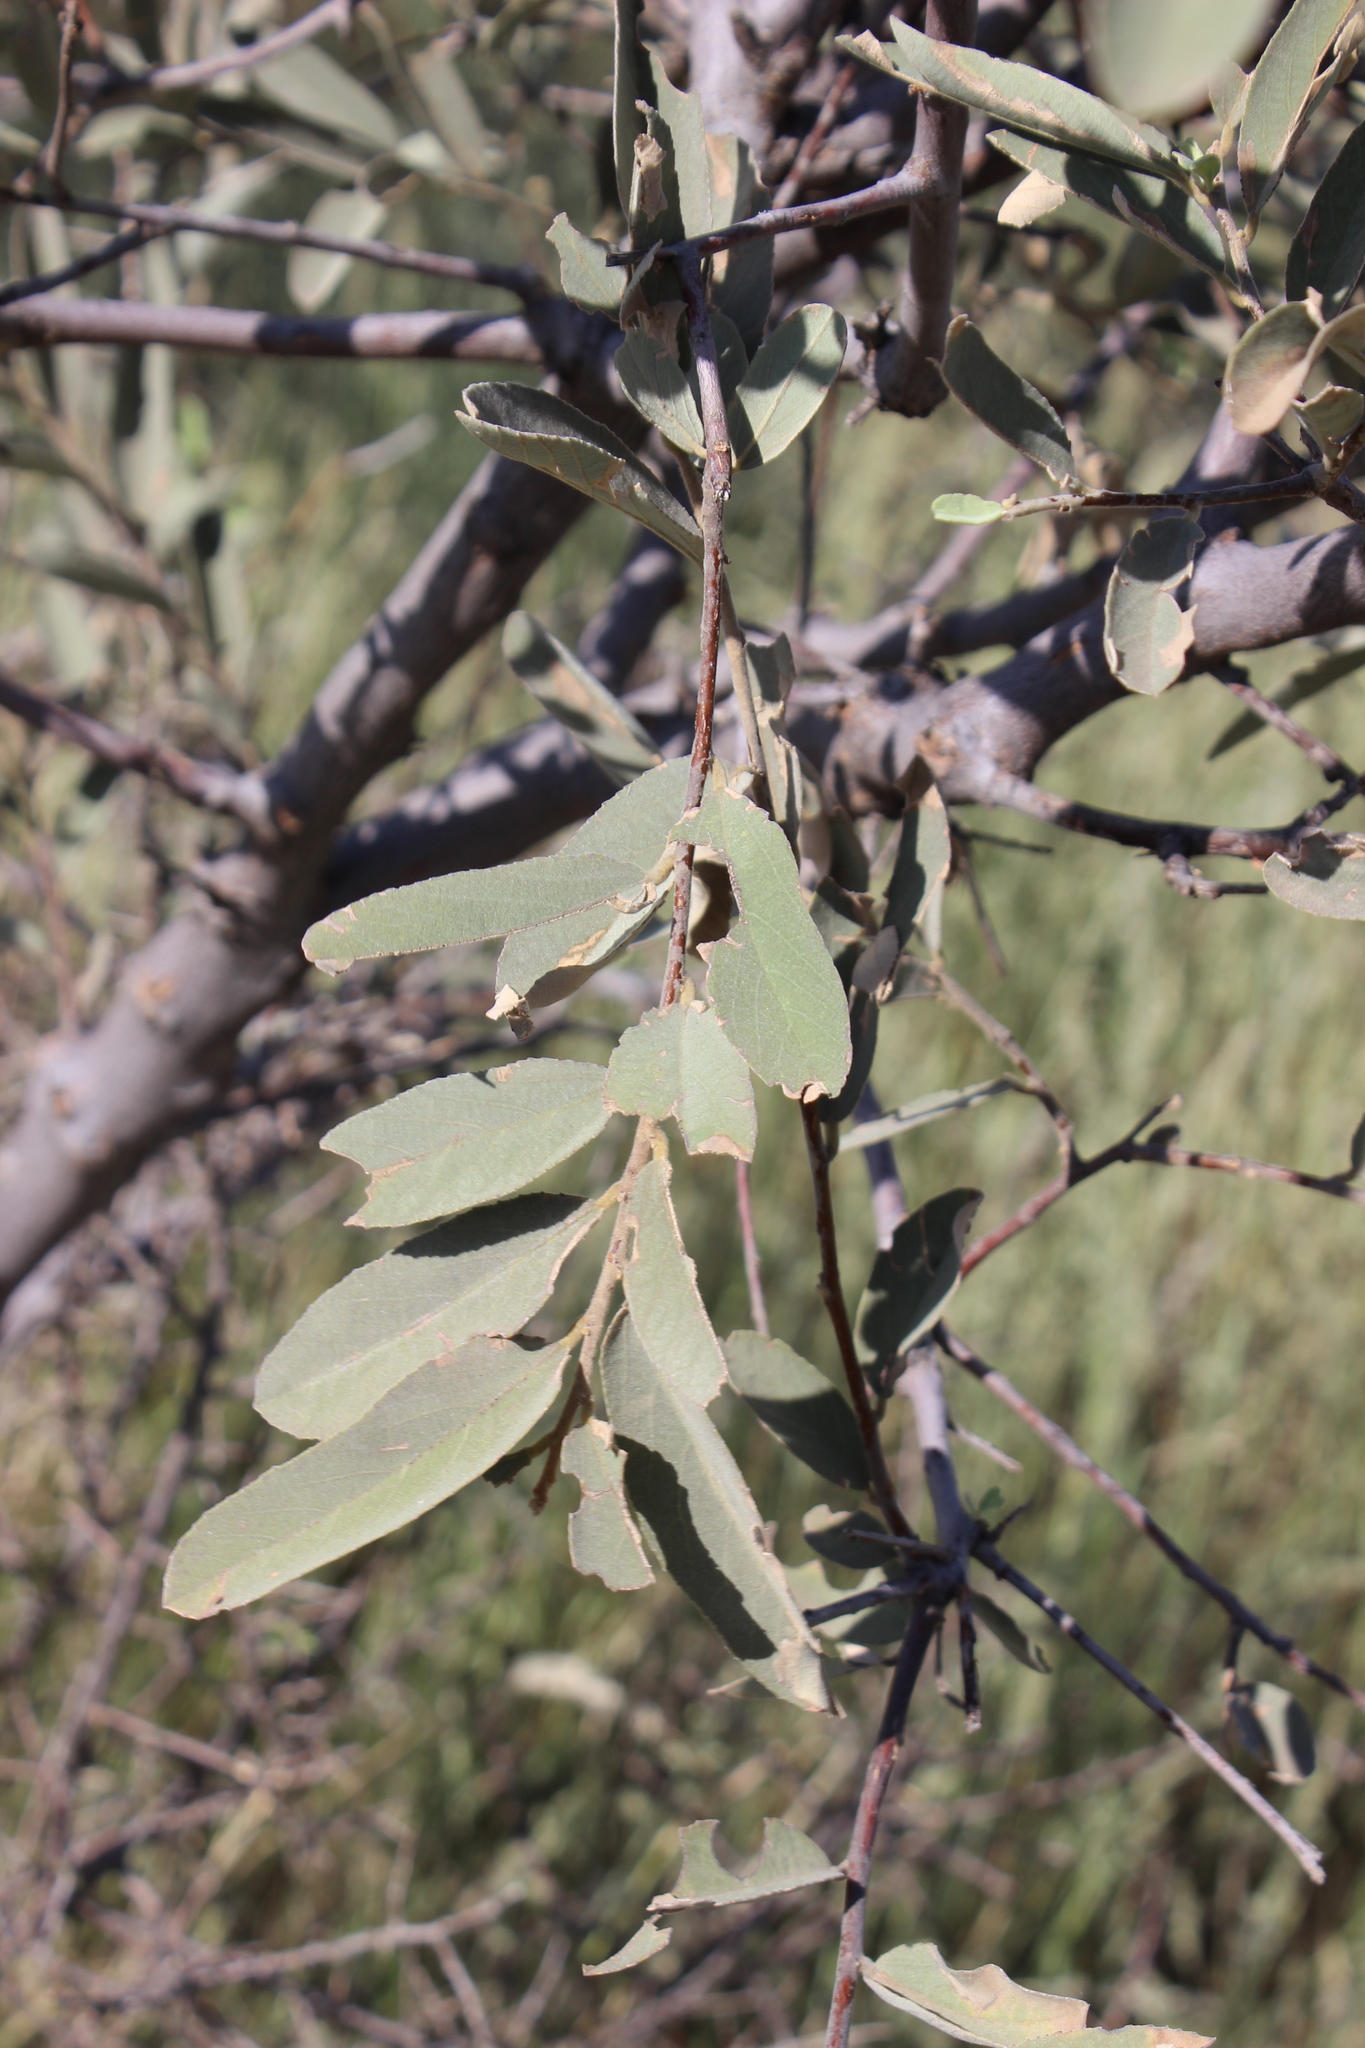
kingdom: Plantae
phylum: Tracheophyta
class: Magnoliopsida
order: Malvales
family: Malvaceae
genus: Grewia
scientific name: Grewia flava
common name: Brandy bush
